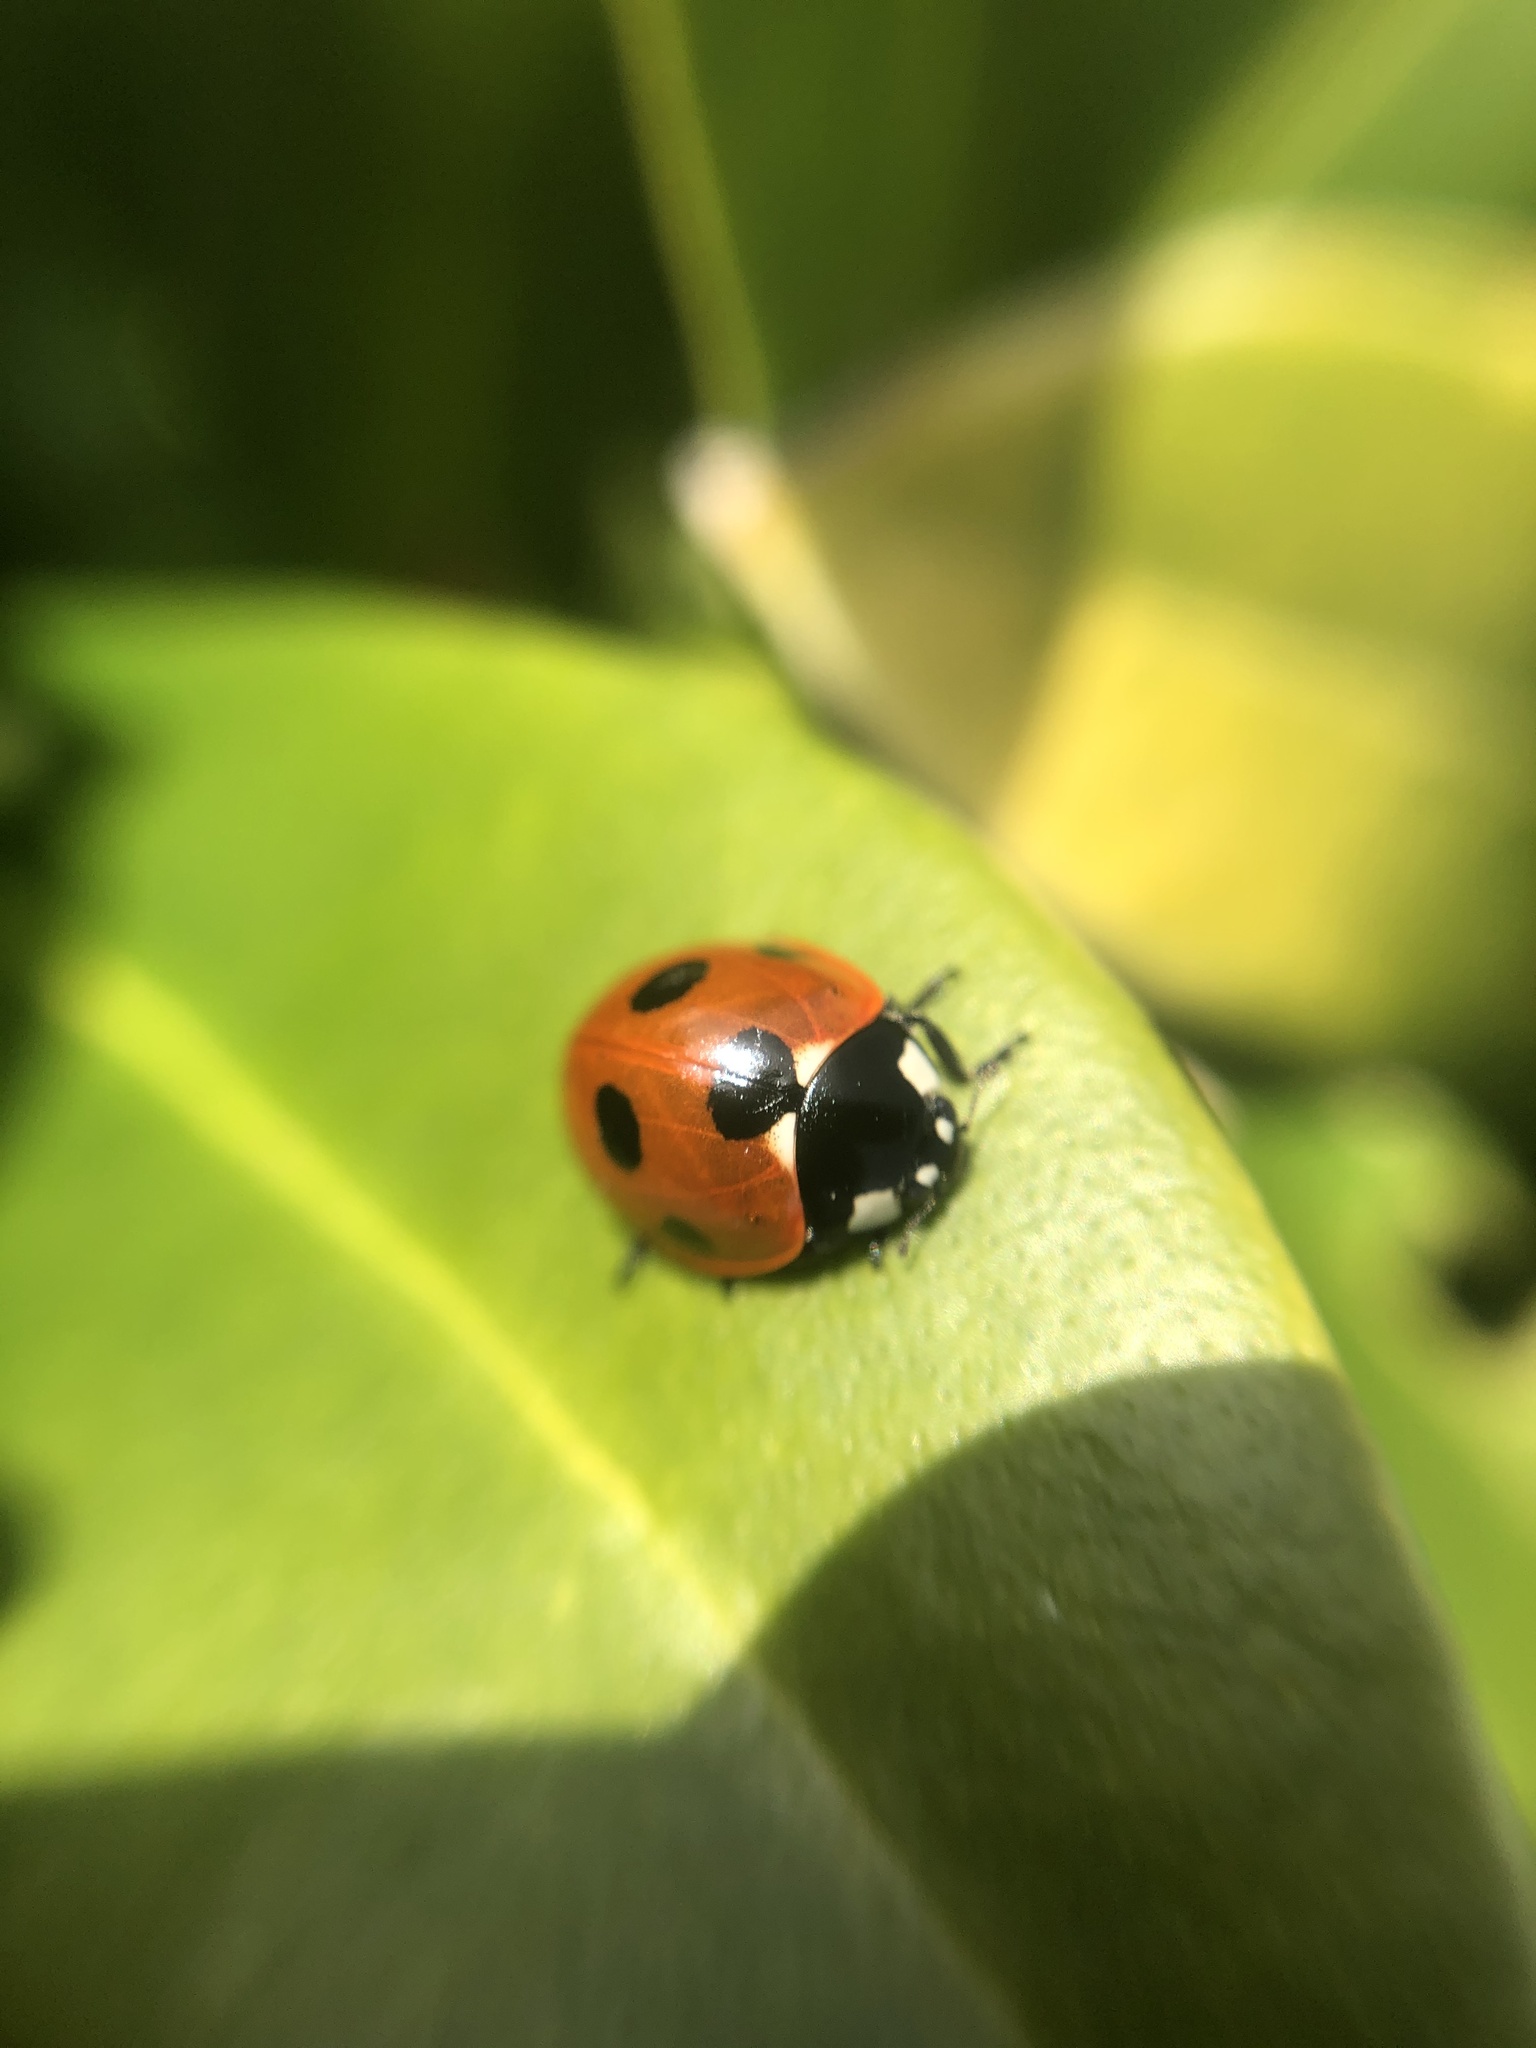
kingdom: Animalia
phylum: Arthropoda
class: Insecta
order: Coleoptera
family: Coccinellidae
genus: Coccinella
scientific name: Coccinella septempunctata
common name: Sevenspotted lady beetle
